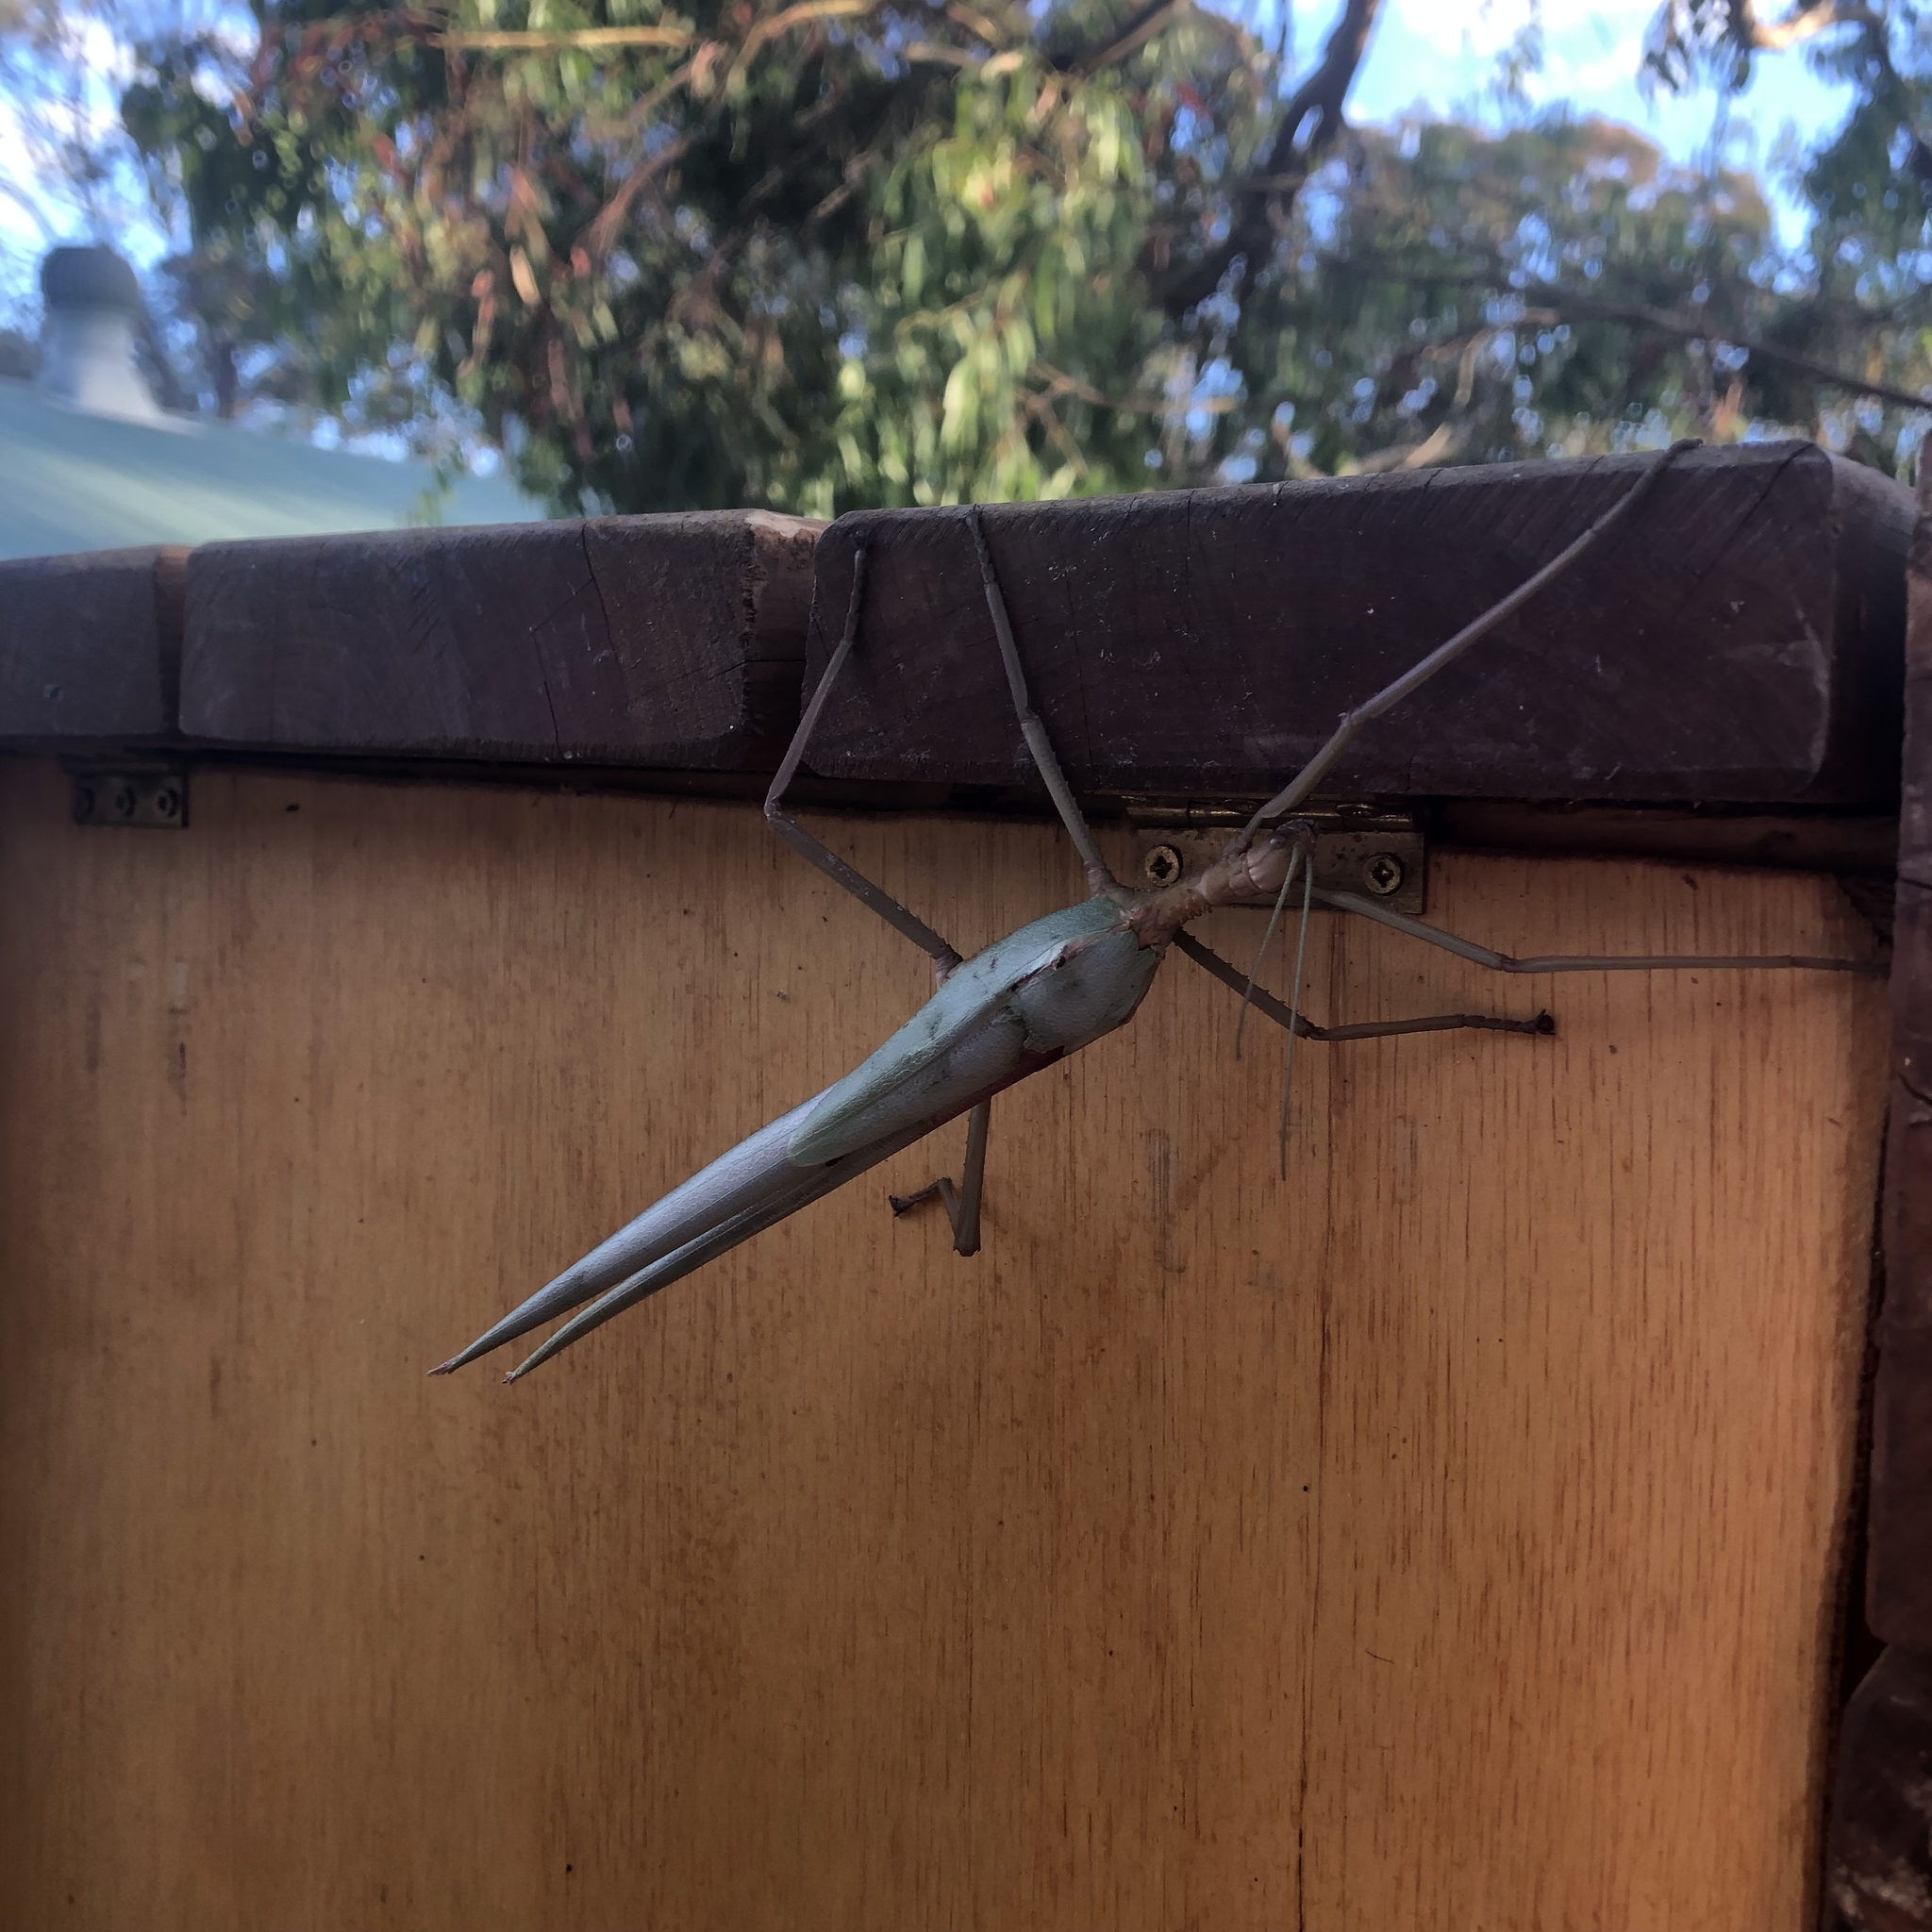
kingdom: Animalia
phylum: Arthropoda
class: Insecta
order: Phasmida
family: Phasmatidae
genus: Podacanthus
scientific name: Podacanthus typhon
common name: Large pink-winged stick-insect
